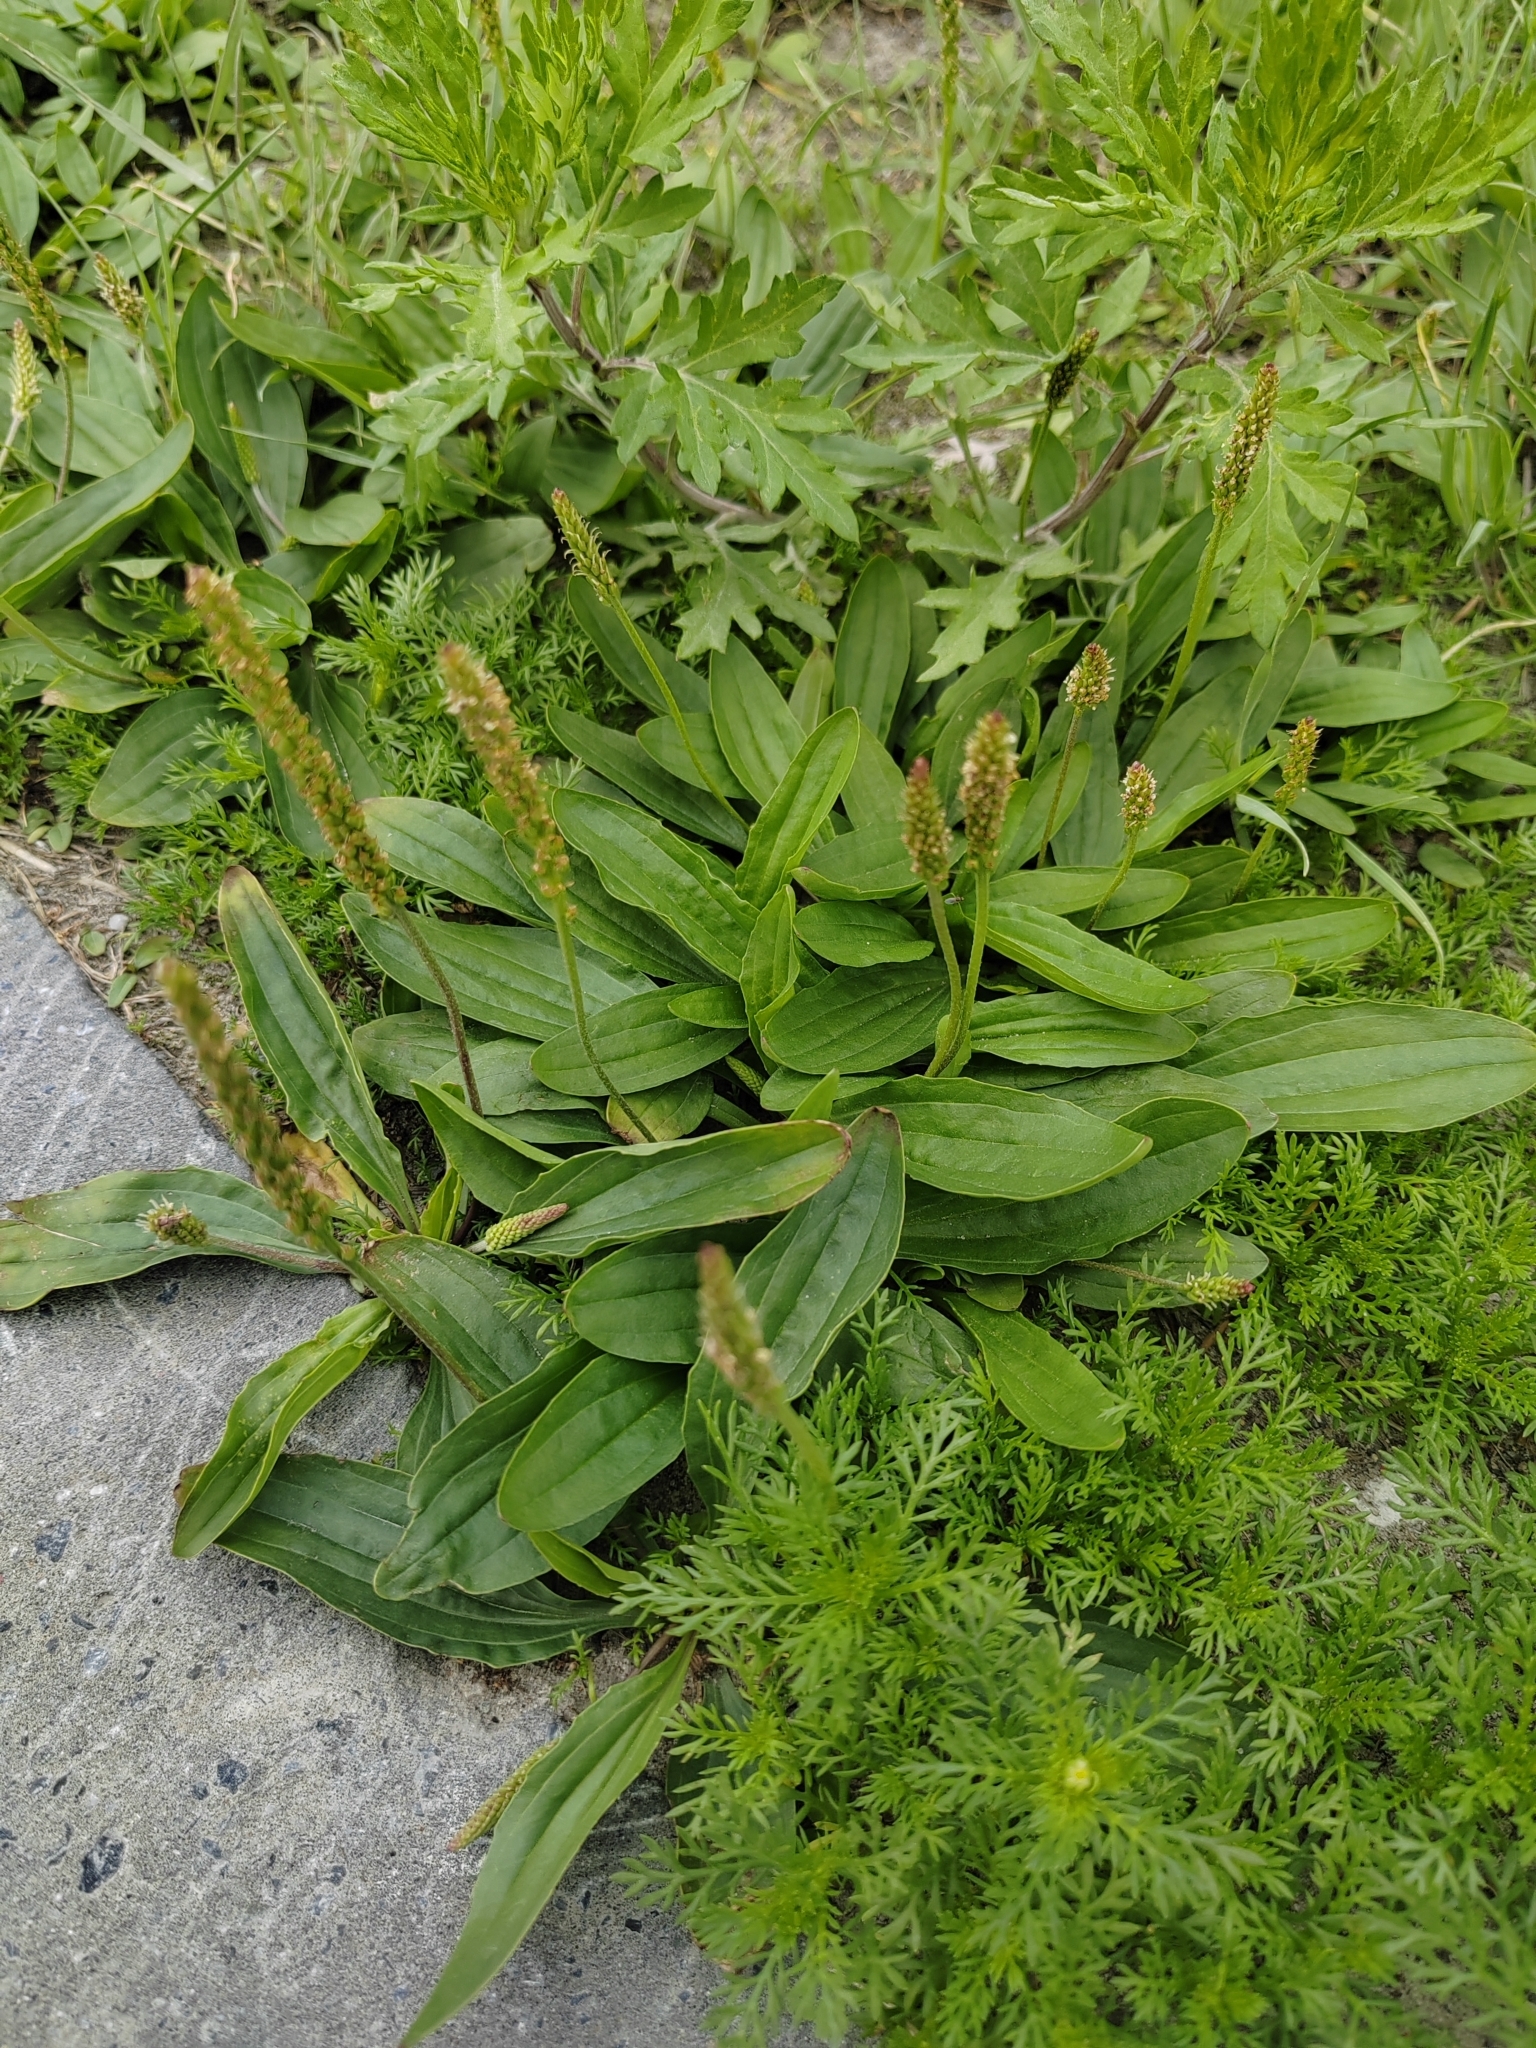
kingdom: Plantae
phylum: Tracheophyta
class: Magnoliopsida
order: Lamiales
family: Plantaginaceae
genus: Plantago
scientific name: Plantago depressa
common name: Depressed plantain
